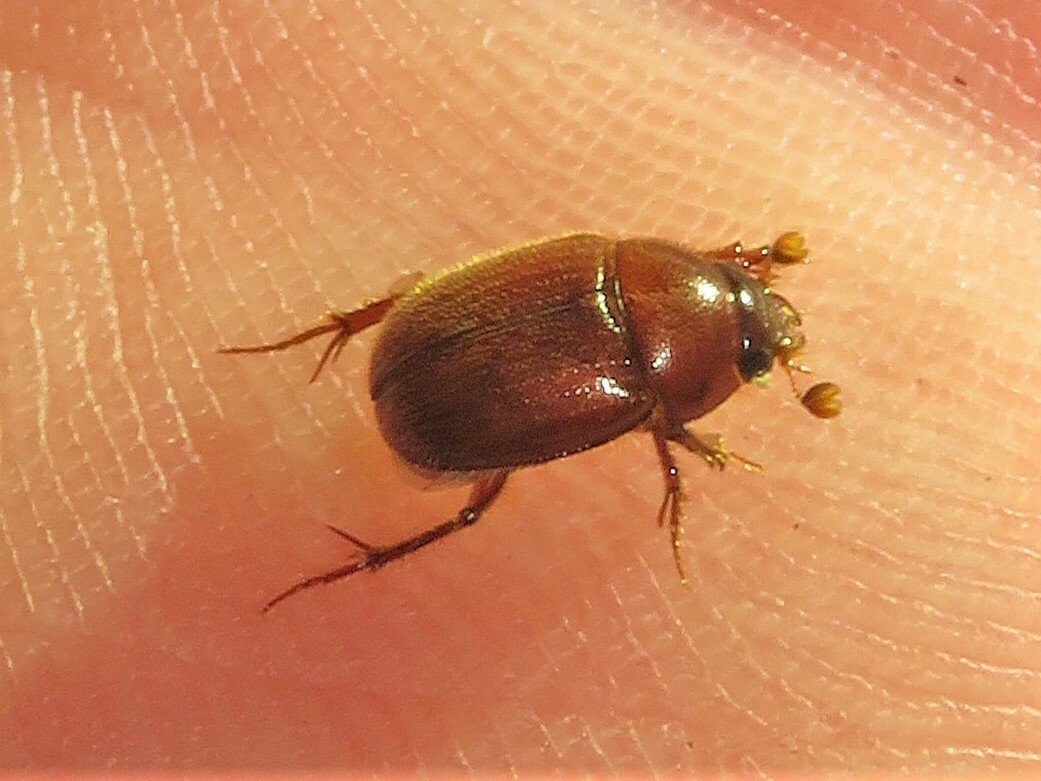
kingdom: Animalia
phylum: Arthropoda
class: Insecta
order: Coleoptera
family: Ochodaeidae
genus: Xenochodaeus
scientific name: Xenochodaeus musculus
